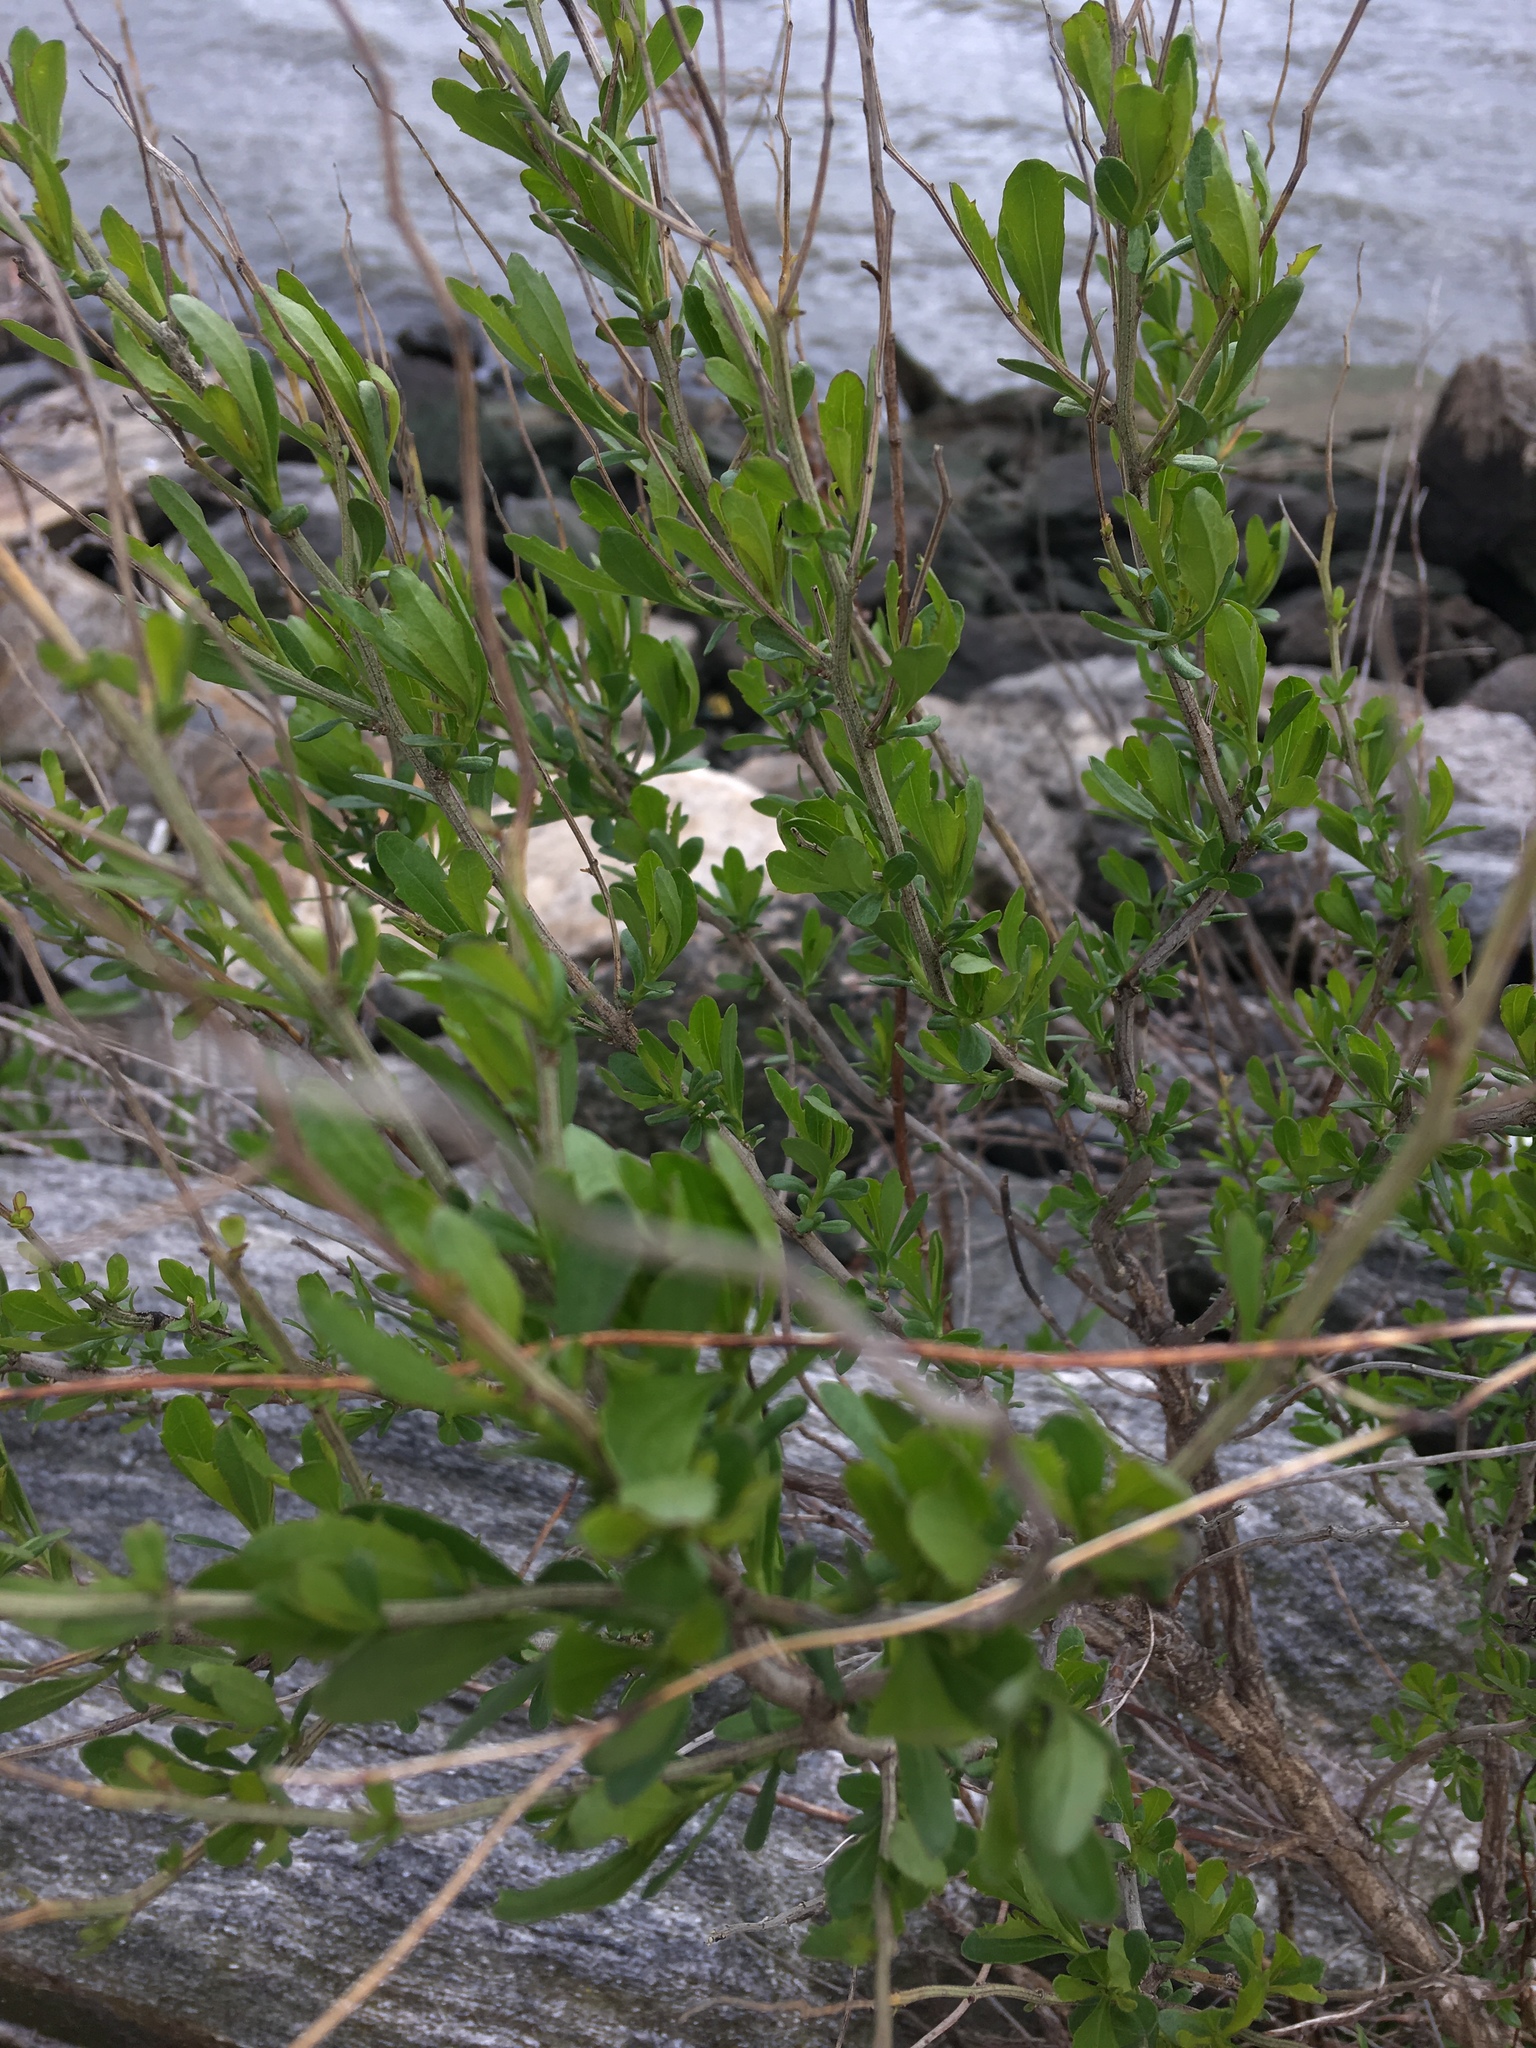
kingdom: Plantae
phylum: Tracheophyta
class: Magnoliopsida
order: Asterales
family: Asteraceae
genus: Baccharis
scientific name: Baccharis halimifolia
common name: Eastern baccharis
